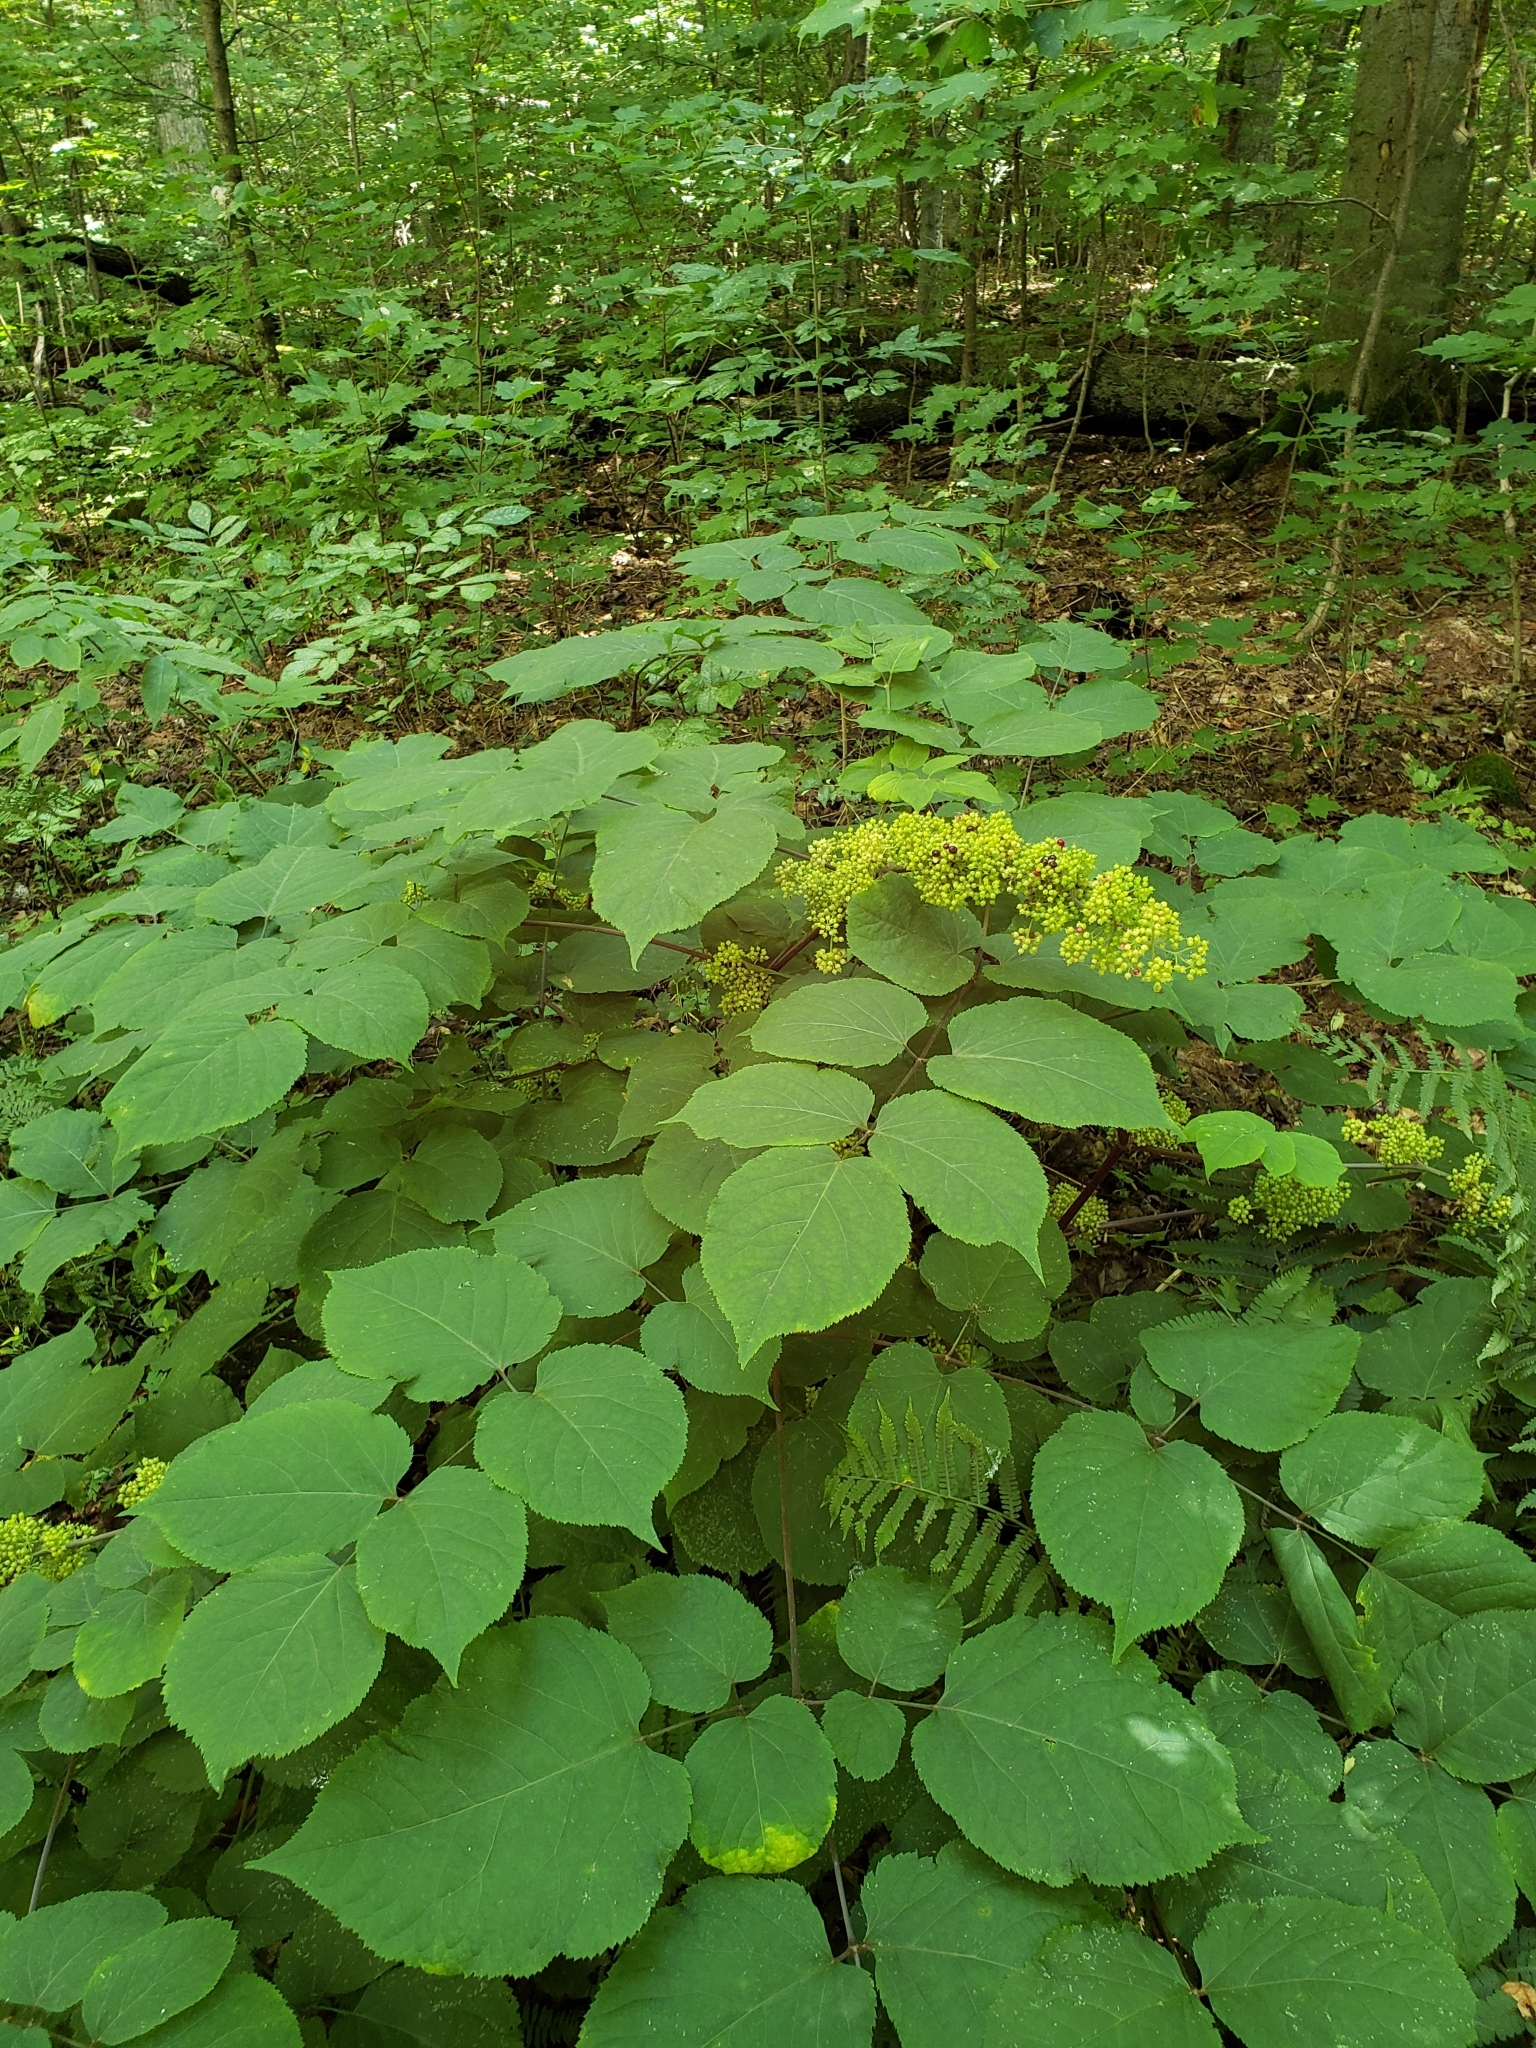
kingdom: Plantae
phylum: Tracheophyta
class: Magnoliopsida
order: Apiales
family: Araliaceae
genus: Aralia
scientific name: Aralia racemosa
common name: American-spikenard
